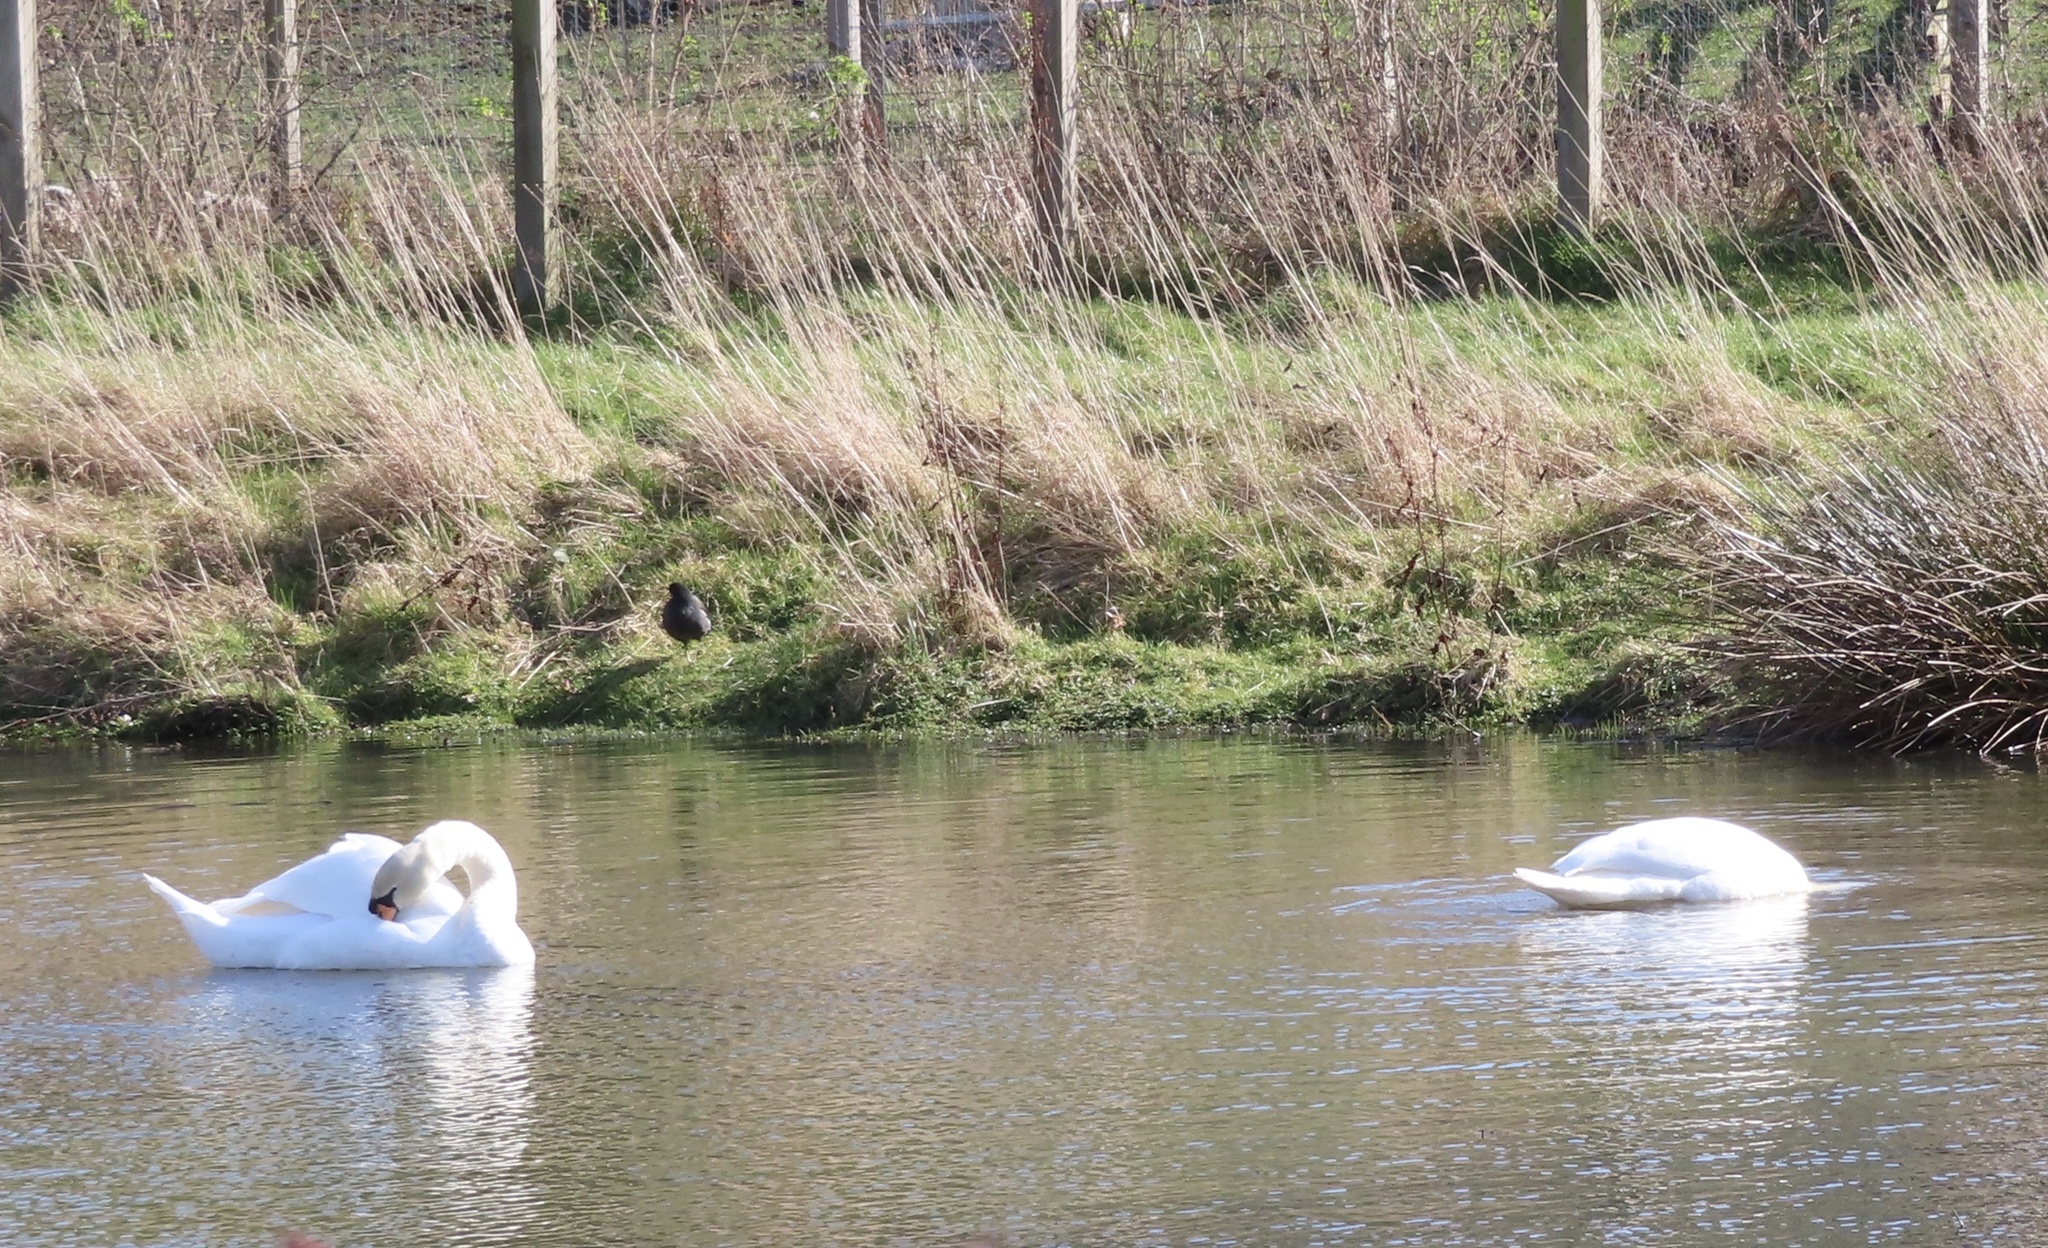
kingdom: Animalia
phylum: Chordata
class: Aves
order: Anseriformes
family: Anatidae
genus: Cygnus
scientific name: Cygnus olor
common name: Mute swan
